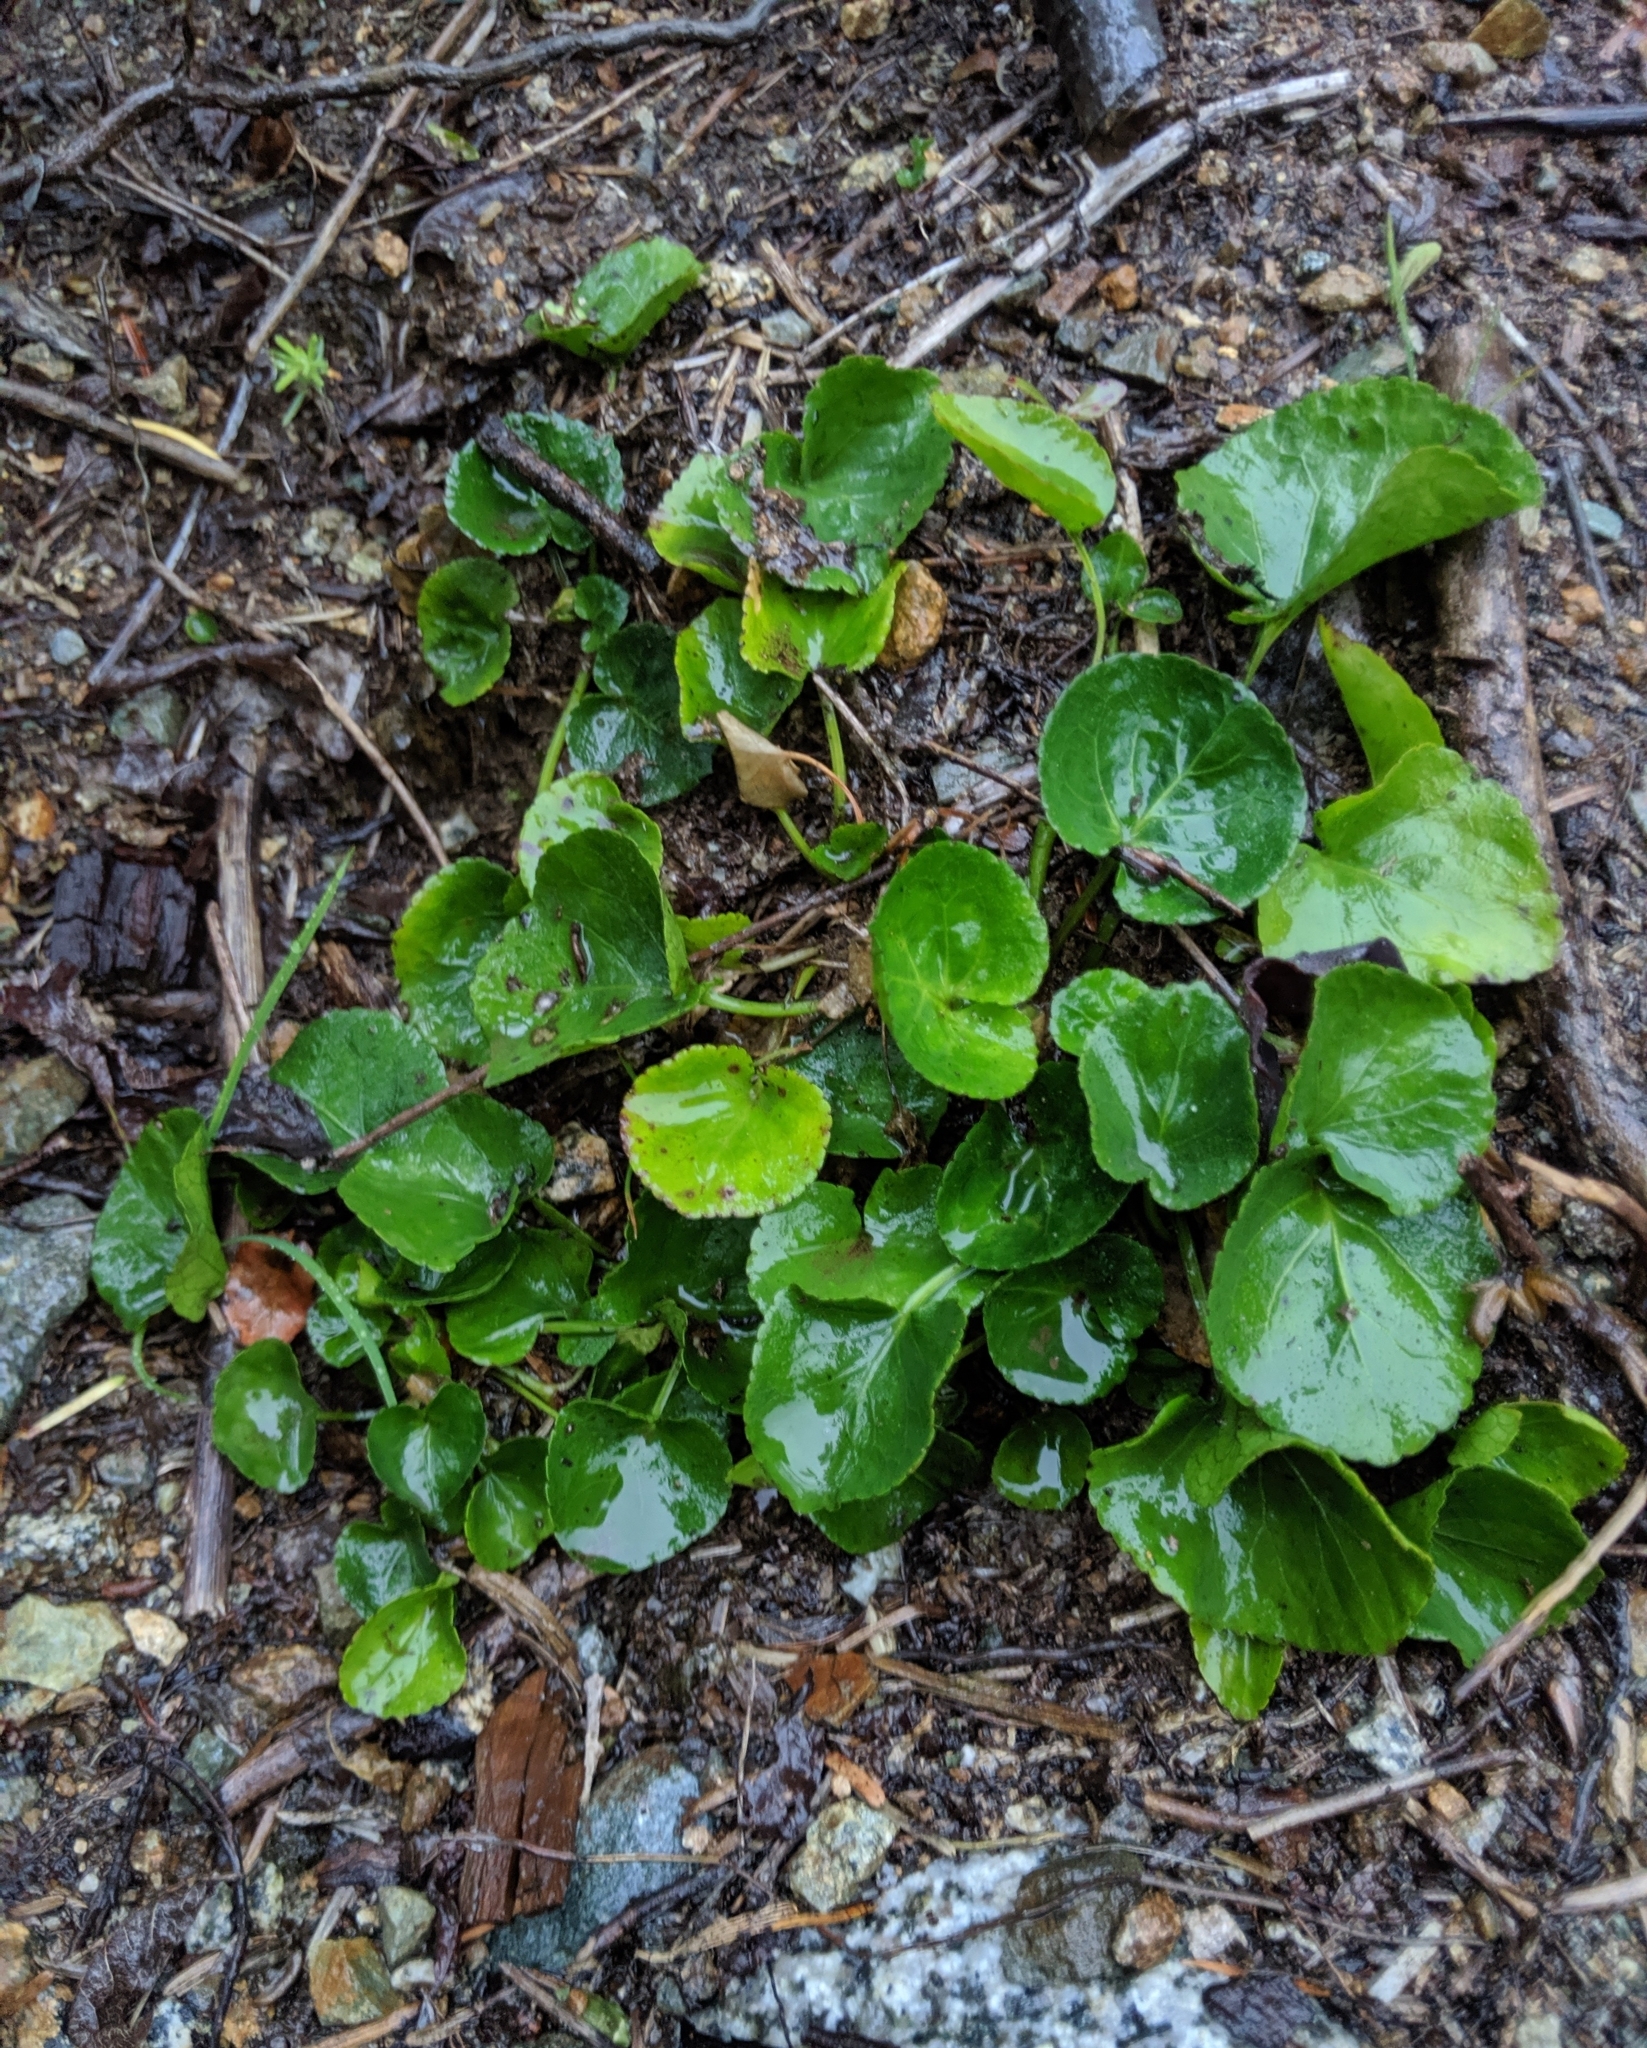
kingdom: Plantae
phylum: Tracheophyta
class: Magnoliopsida
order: Malpighiales
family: Violaceae
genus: Viola
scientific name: Viola sempervirens
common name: Evergreen violet
